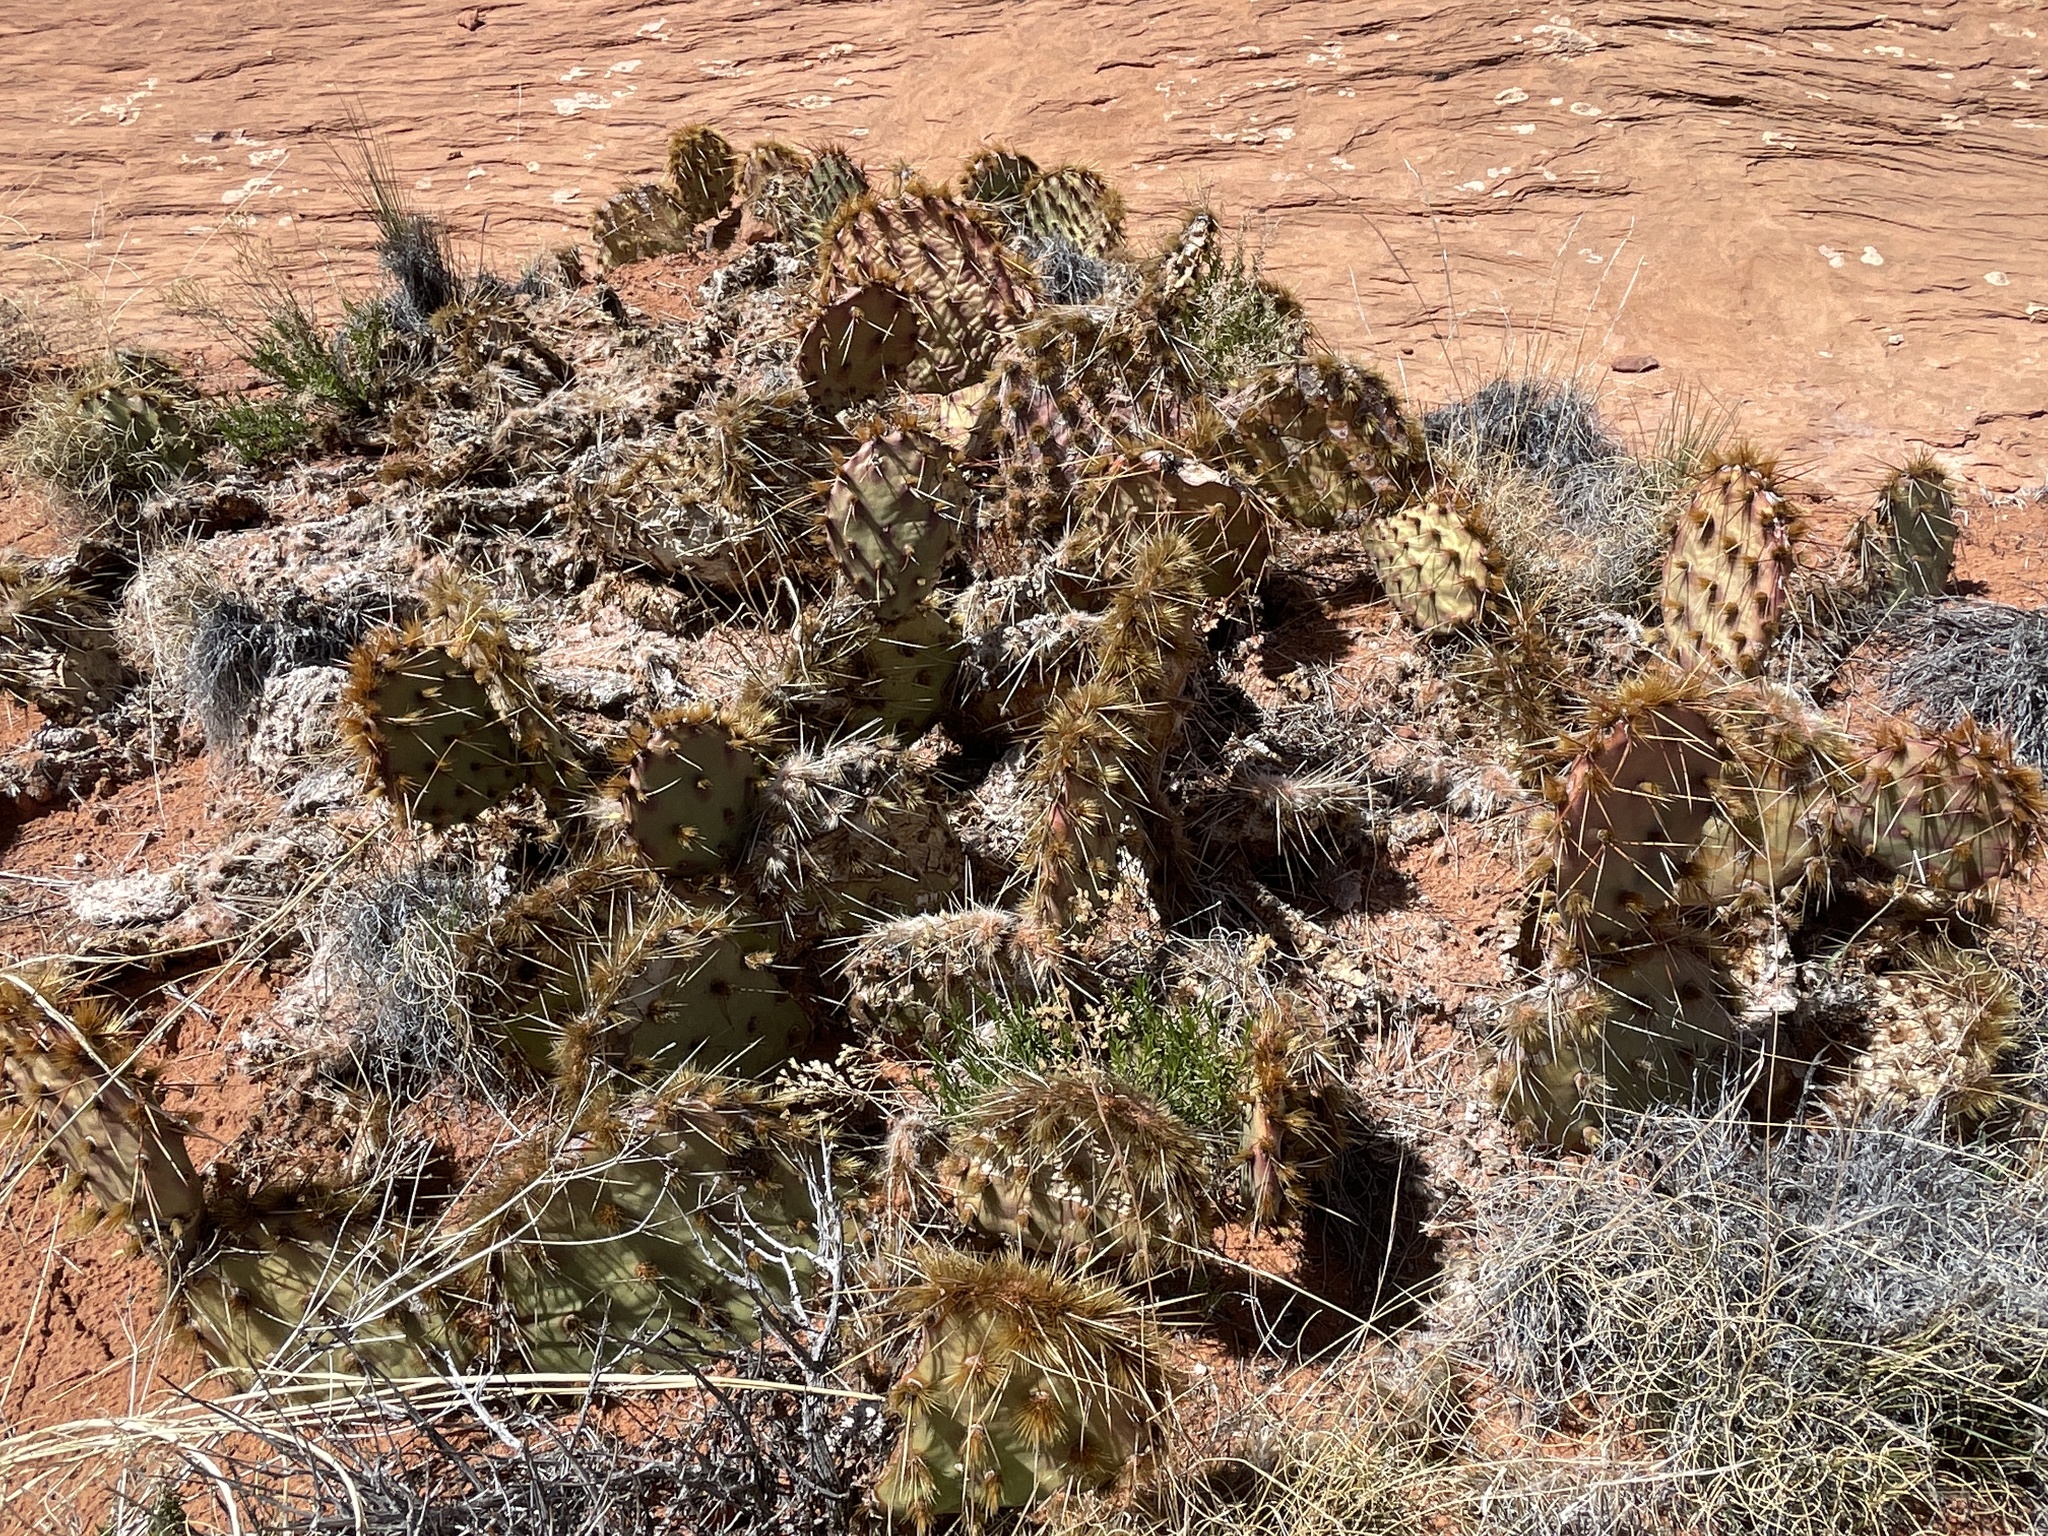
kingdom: Plantae
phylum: Tracheophyta
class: Magnoliopsida
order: Caryophyllales
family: Cactaceae
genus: Opuntia
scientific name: Opuntia phaeacantha
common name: New mexico prickly-pear
